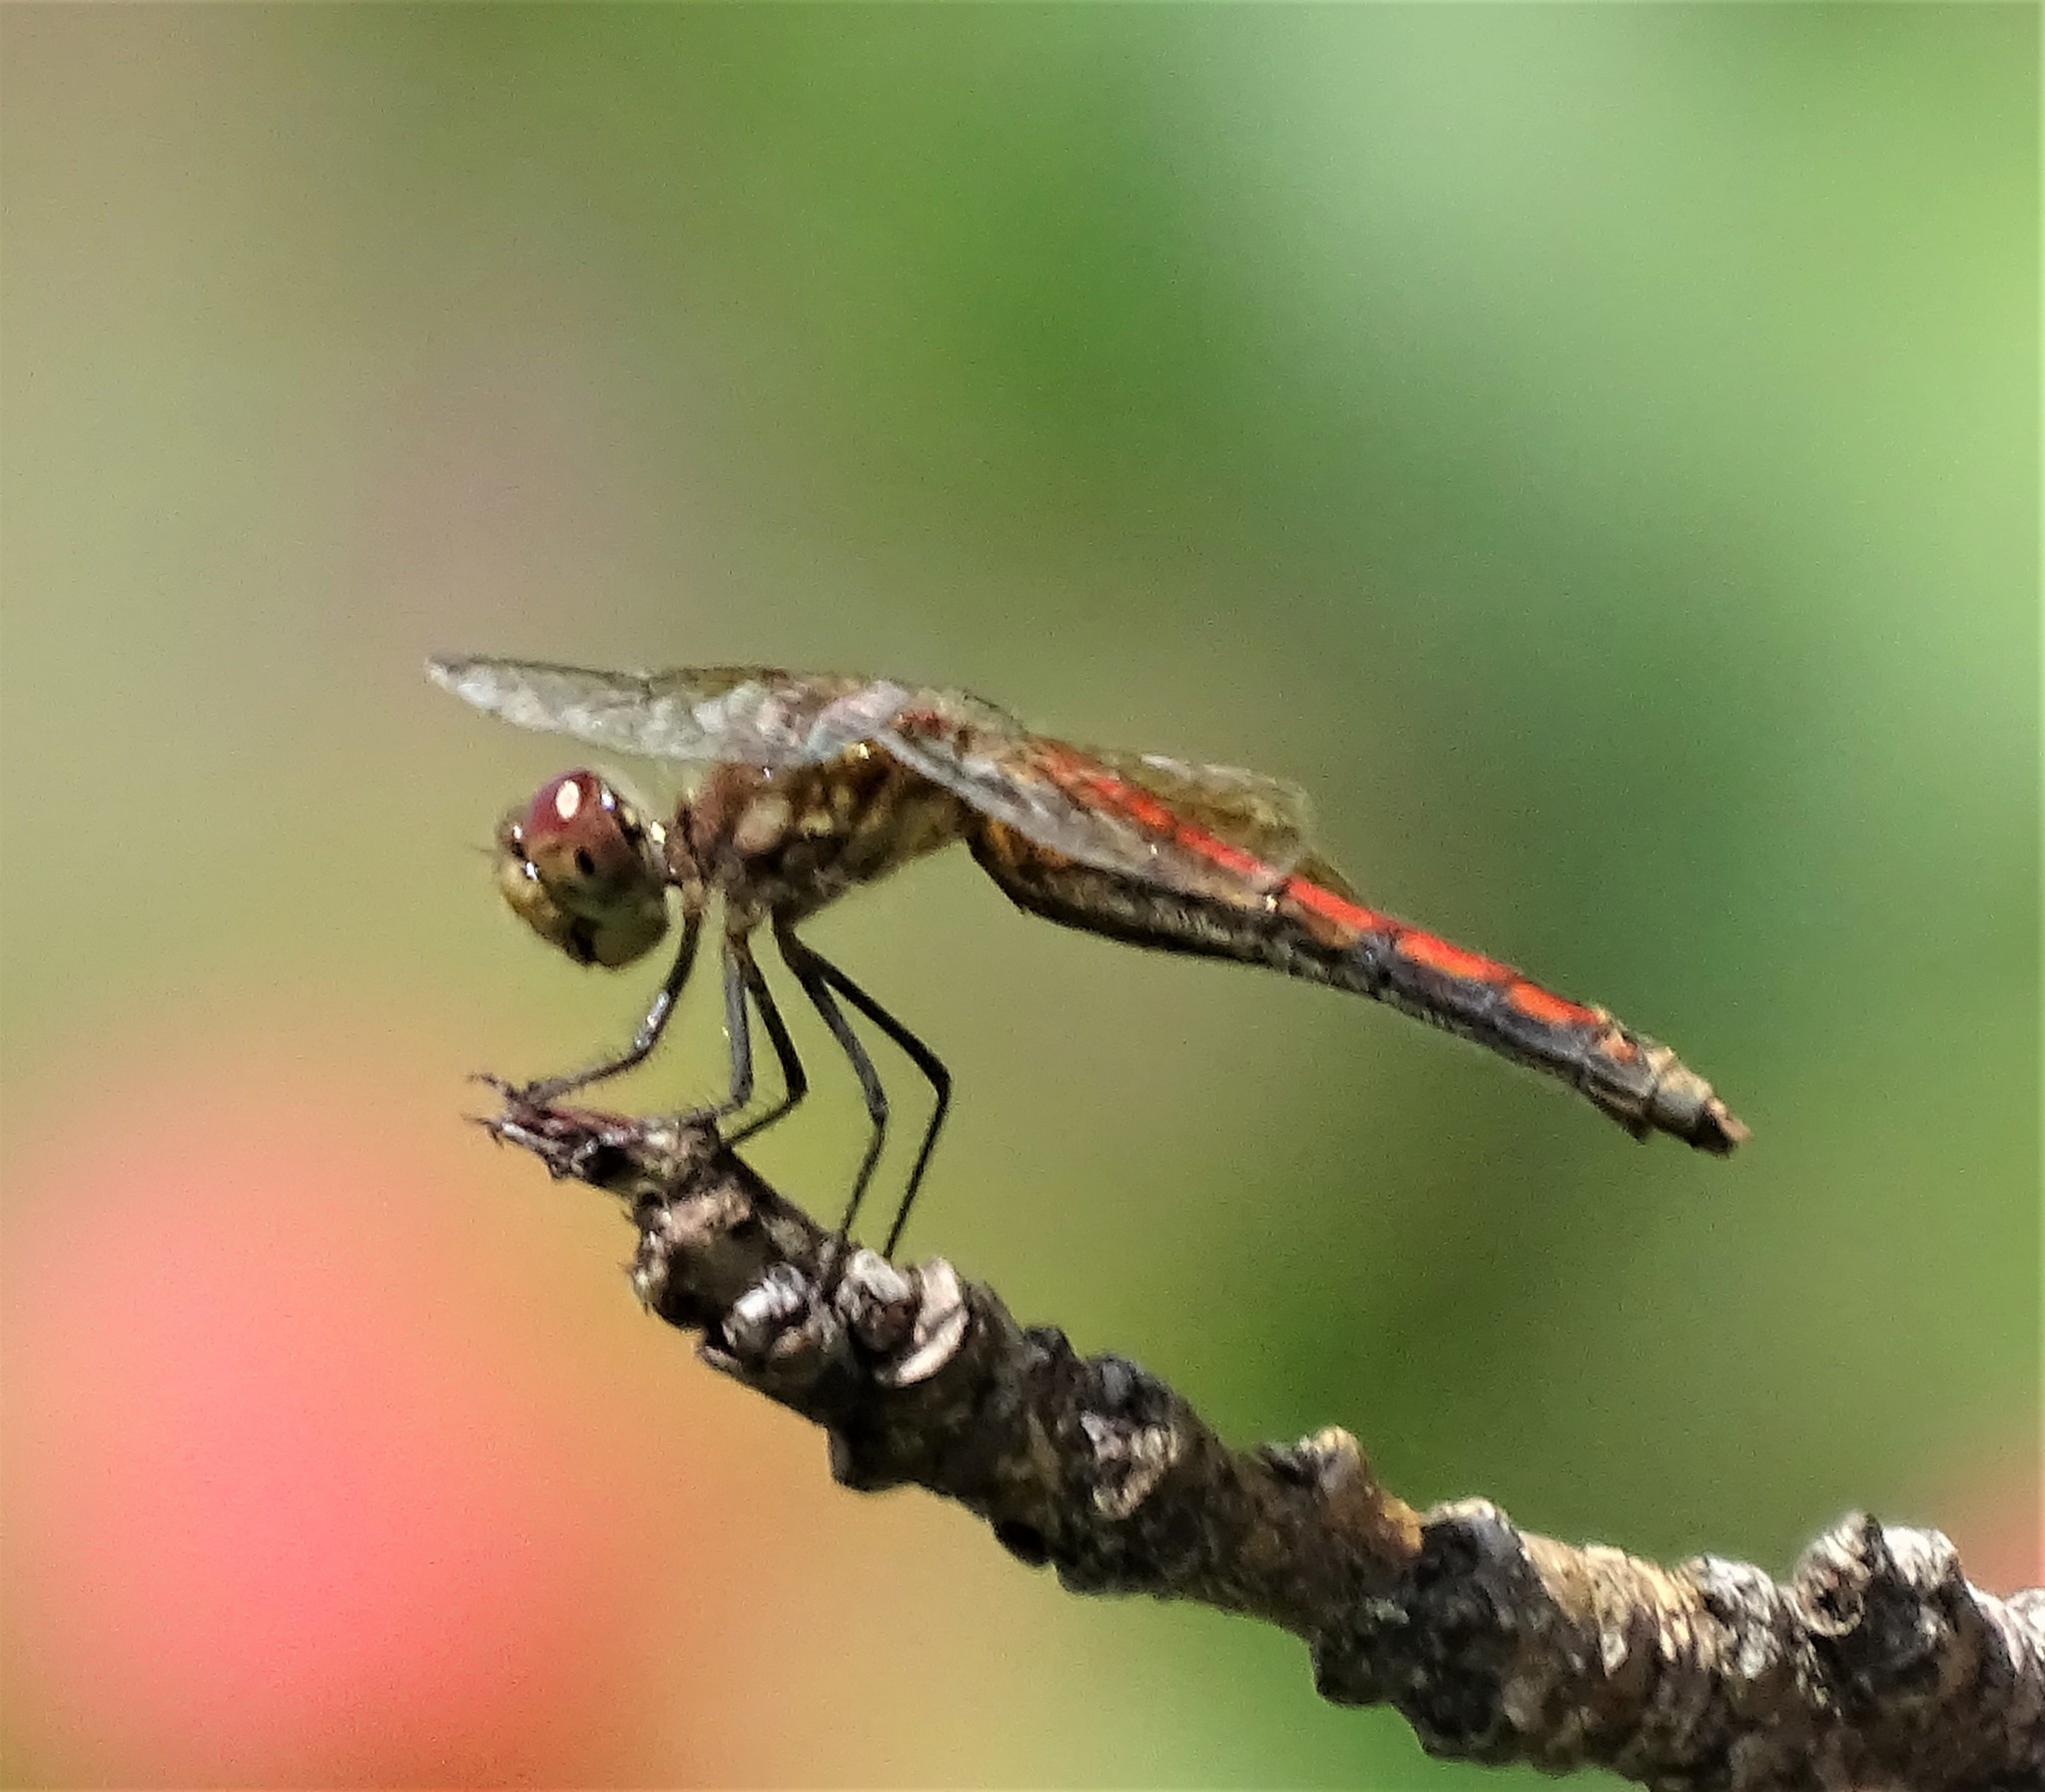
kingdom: Animalia
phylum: Arthropoda
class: Insecta
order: Odonata
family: Libellulidae
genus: Sympetrum
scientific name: Sympetrum semicinctum
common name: Band-winged meadowhawk
